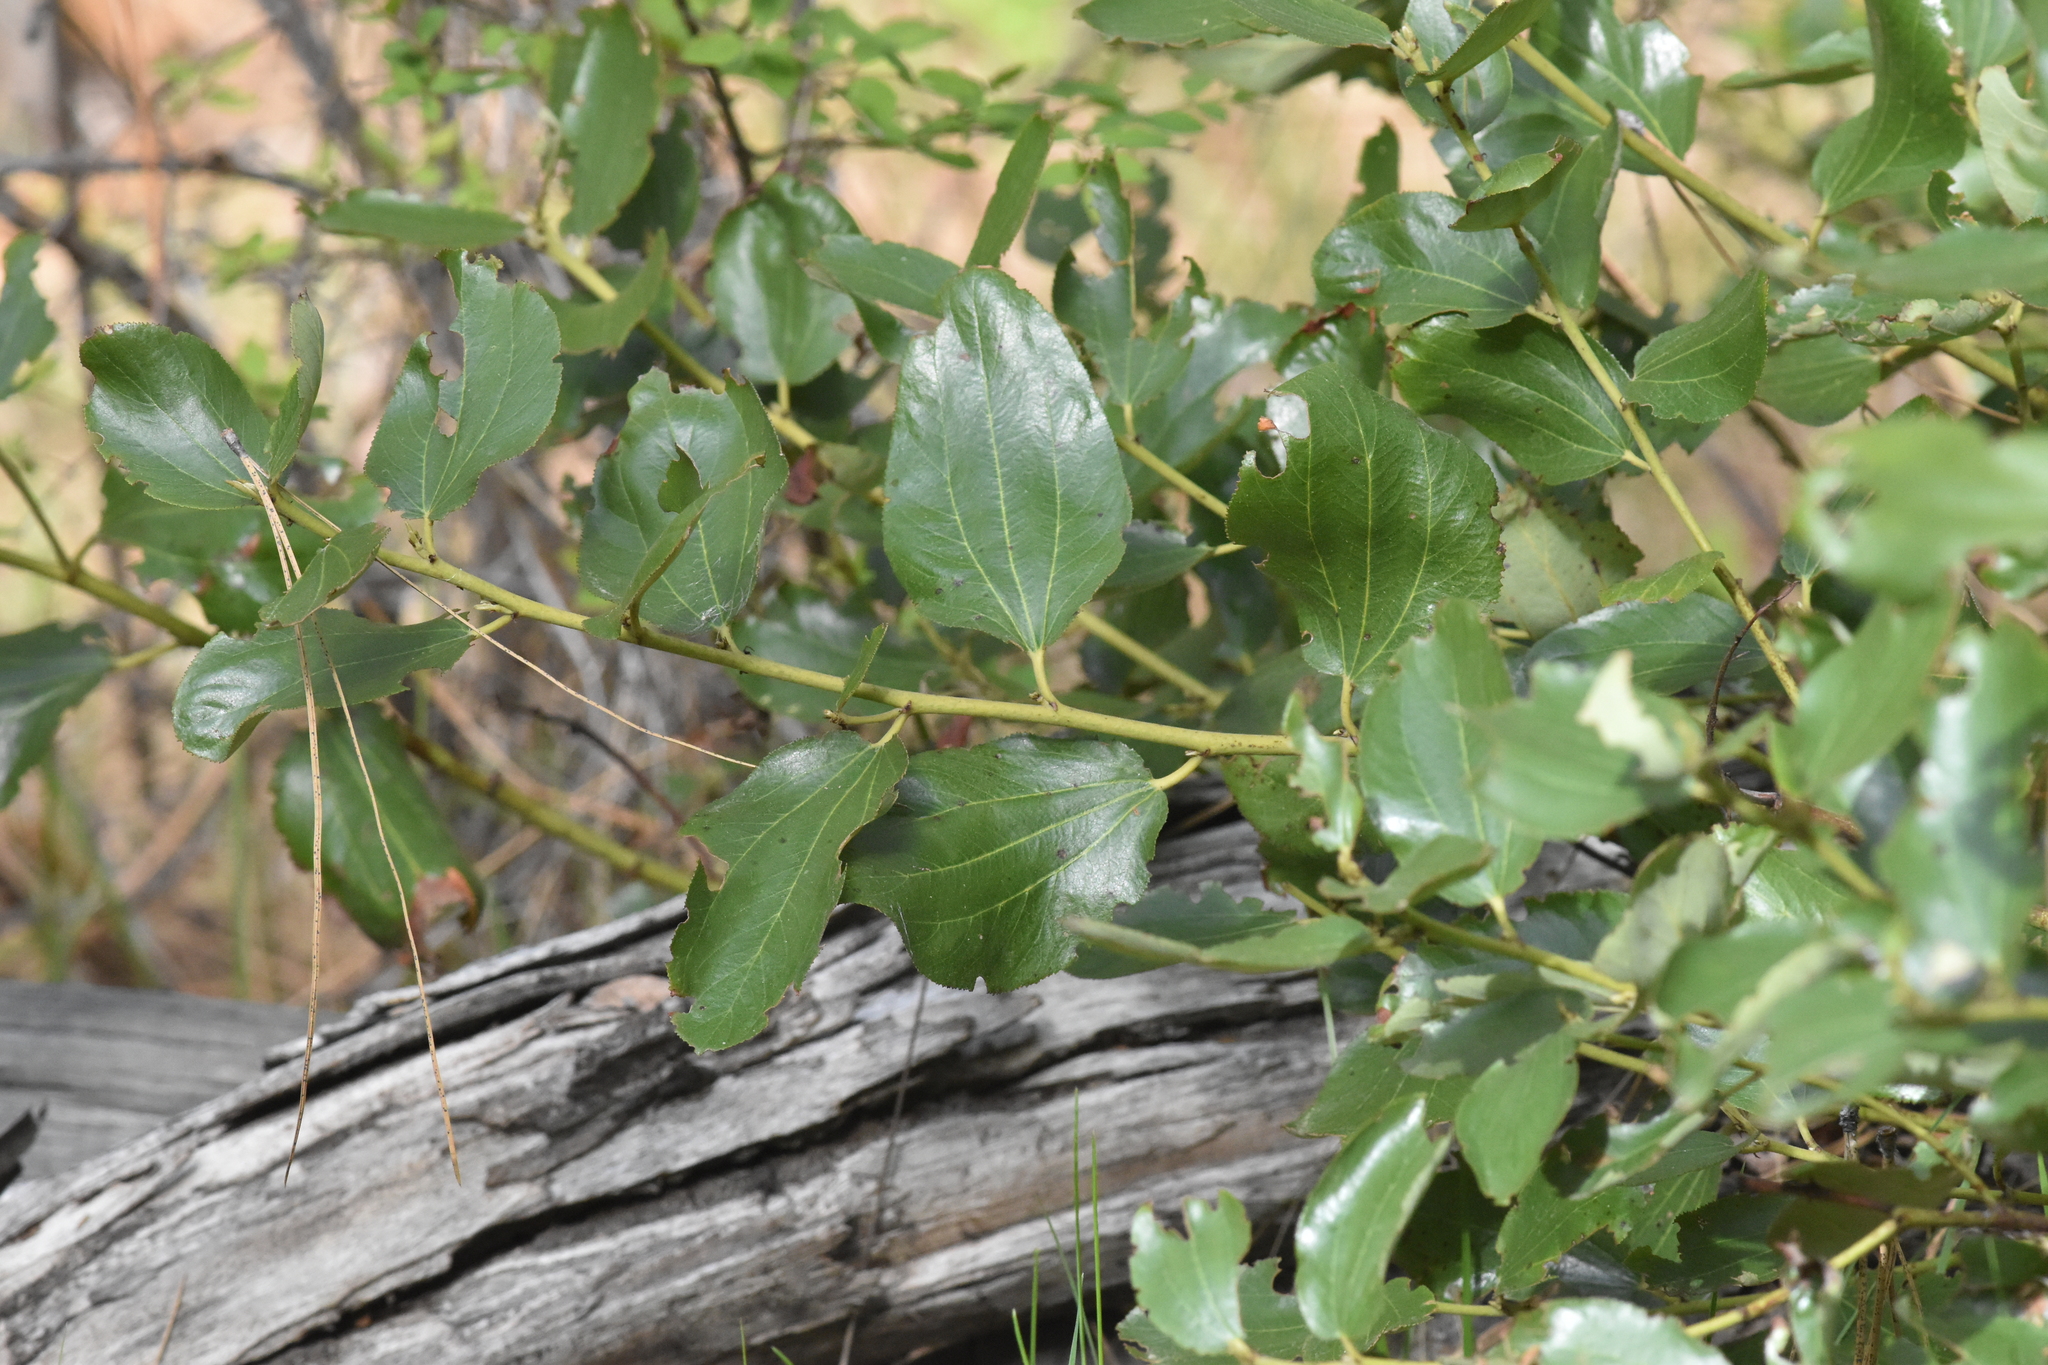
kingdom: Plantae
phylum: Tracheophyta
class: Magnoliopsida
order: Rosales
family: Rhamnaceae
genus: Ceanothus
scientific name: Ceanothus velutinus
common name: Snowbrush
